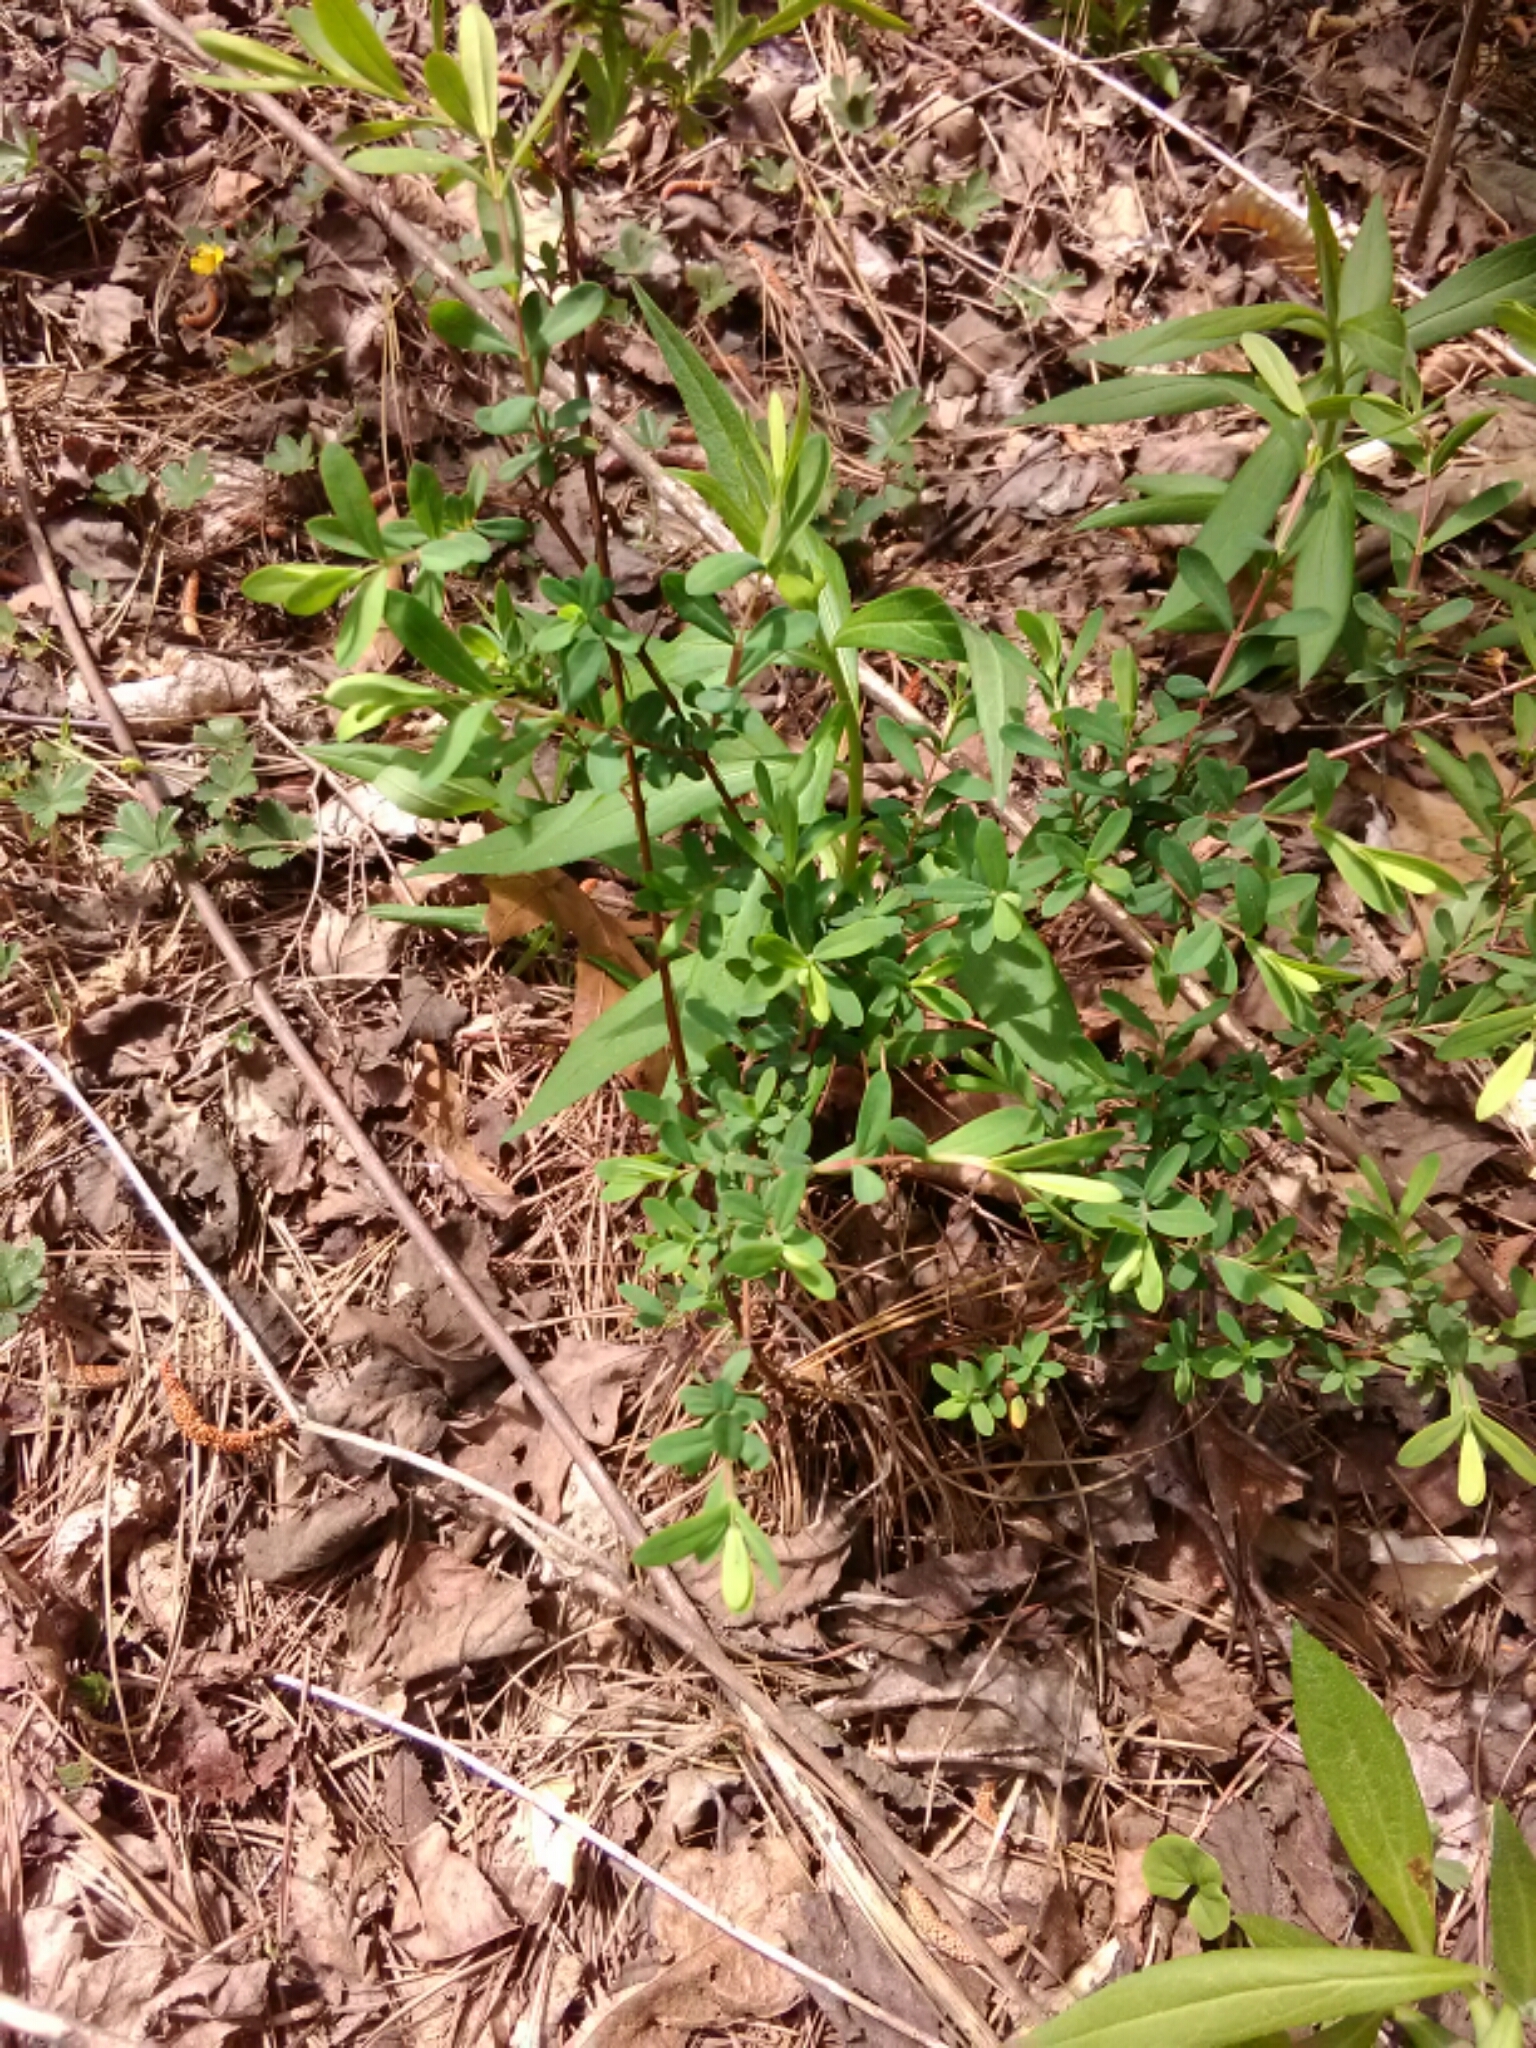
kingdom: Plantae
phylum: Tracheophyta
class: Magnoliopsida
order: Dipsacales
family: Caprifoliaceae
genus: Lonicera
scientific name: Lonicera japonica
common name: Japanese honeysuckle
